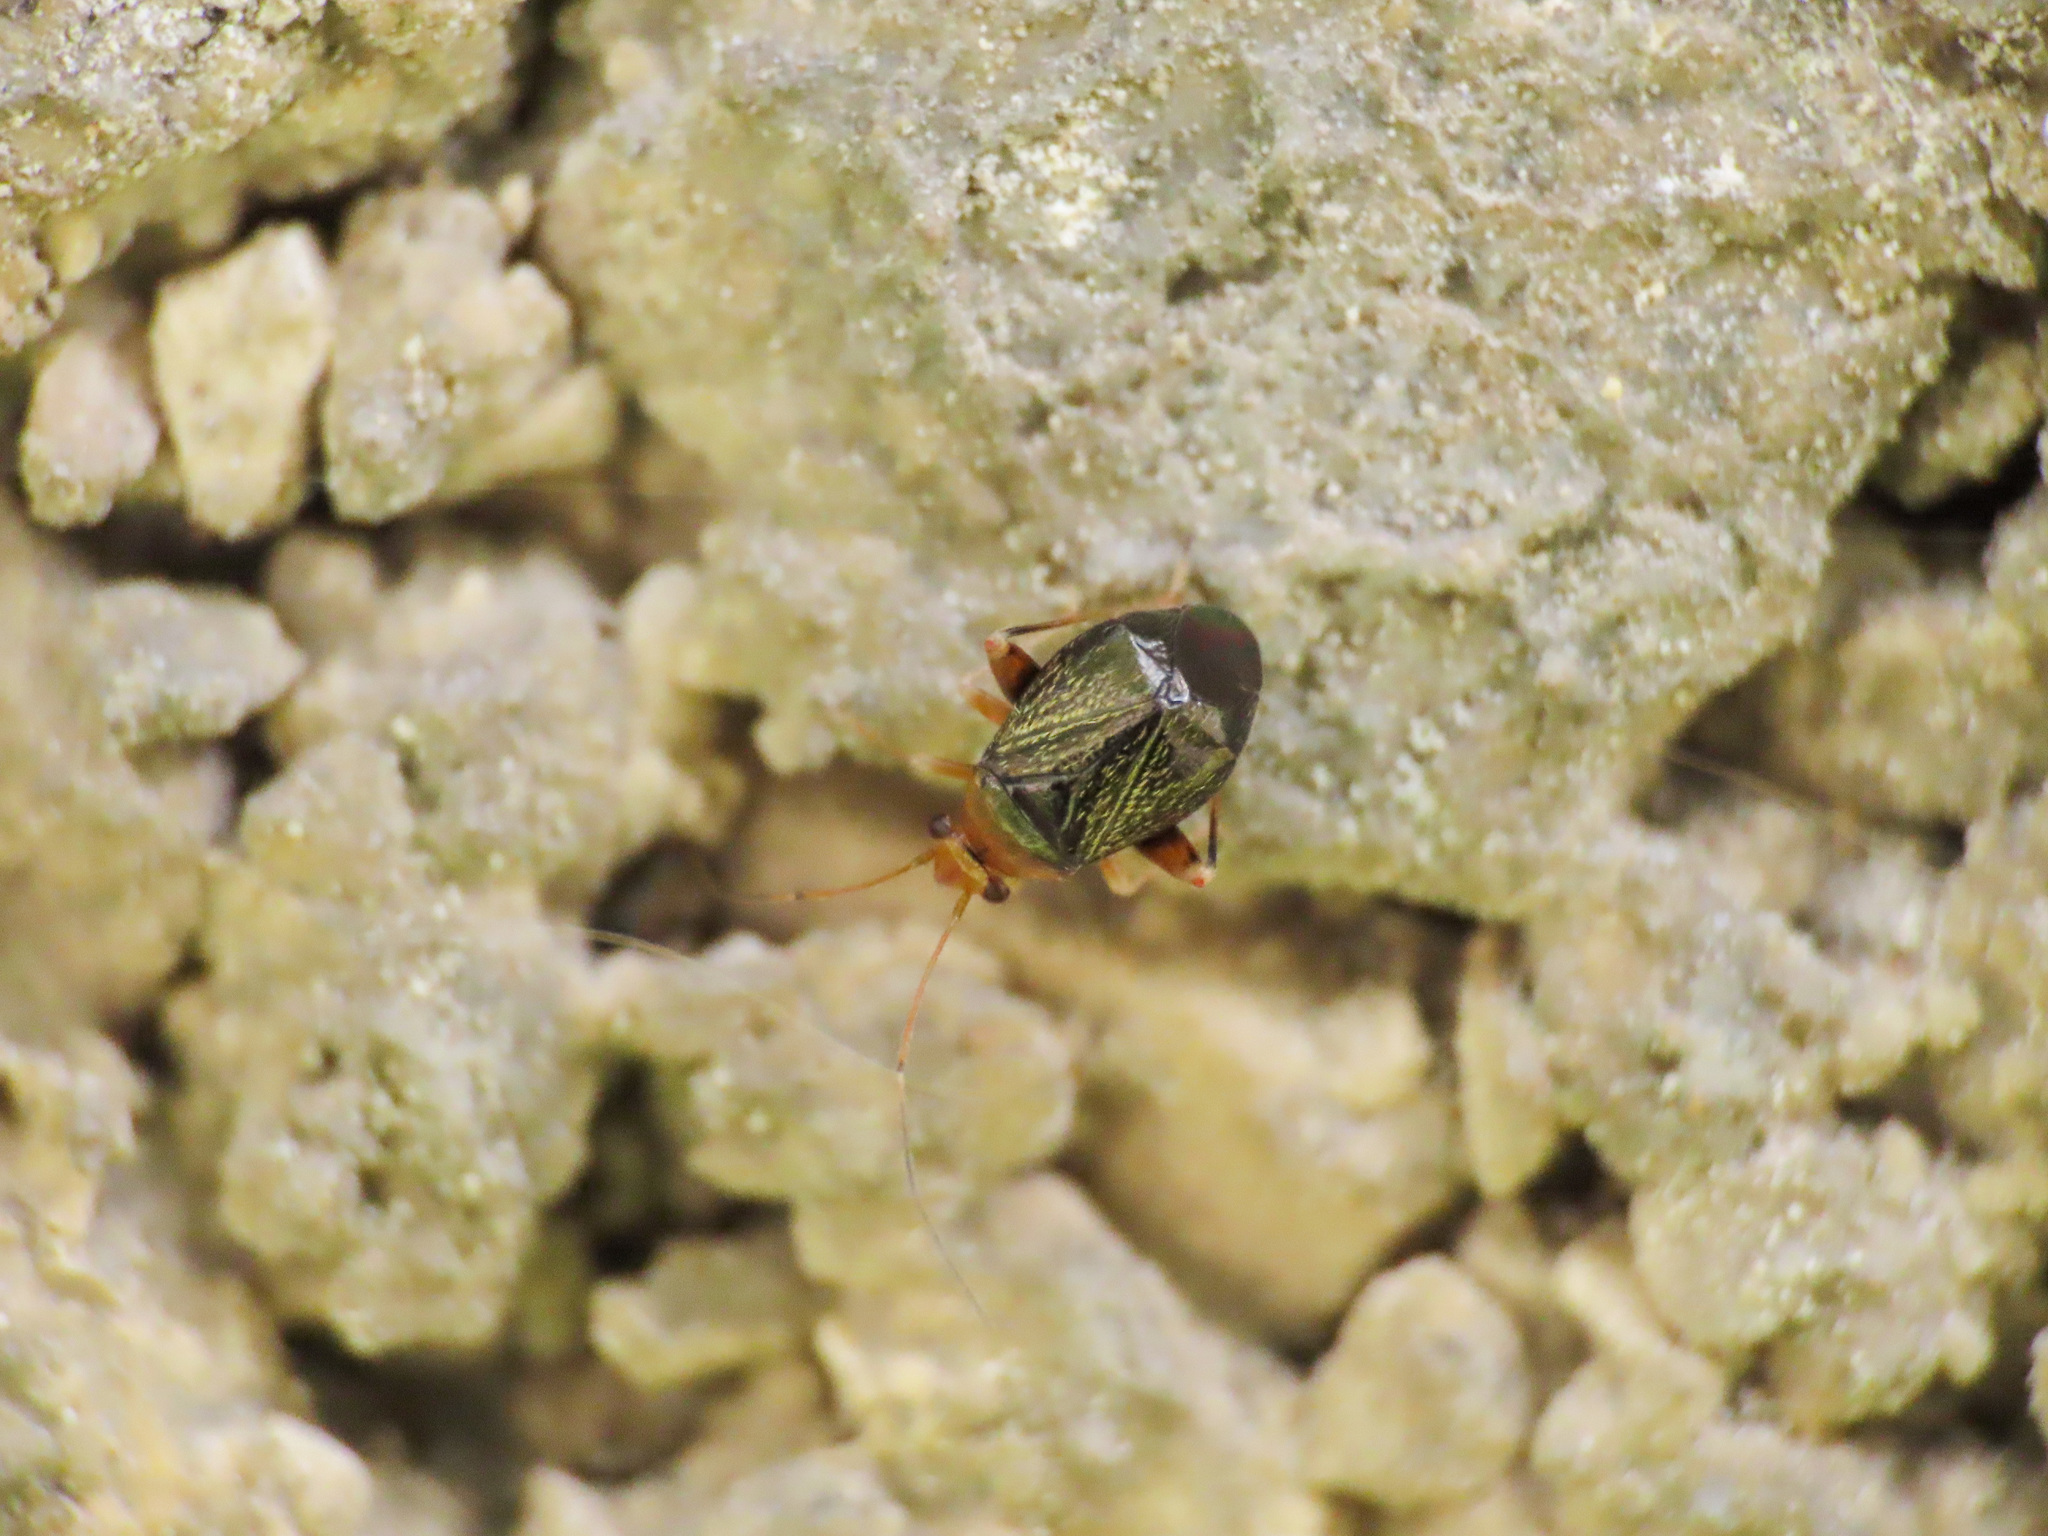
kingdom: Animalia
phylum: Arthropoda
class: Insecta
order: Hemiptera
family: Miridae
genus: Halticus
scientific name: Halticus luteicollis
